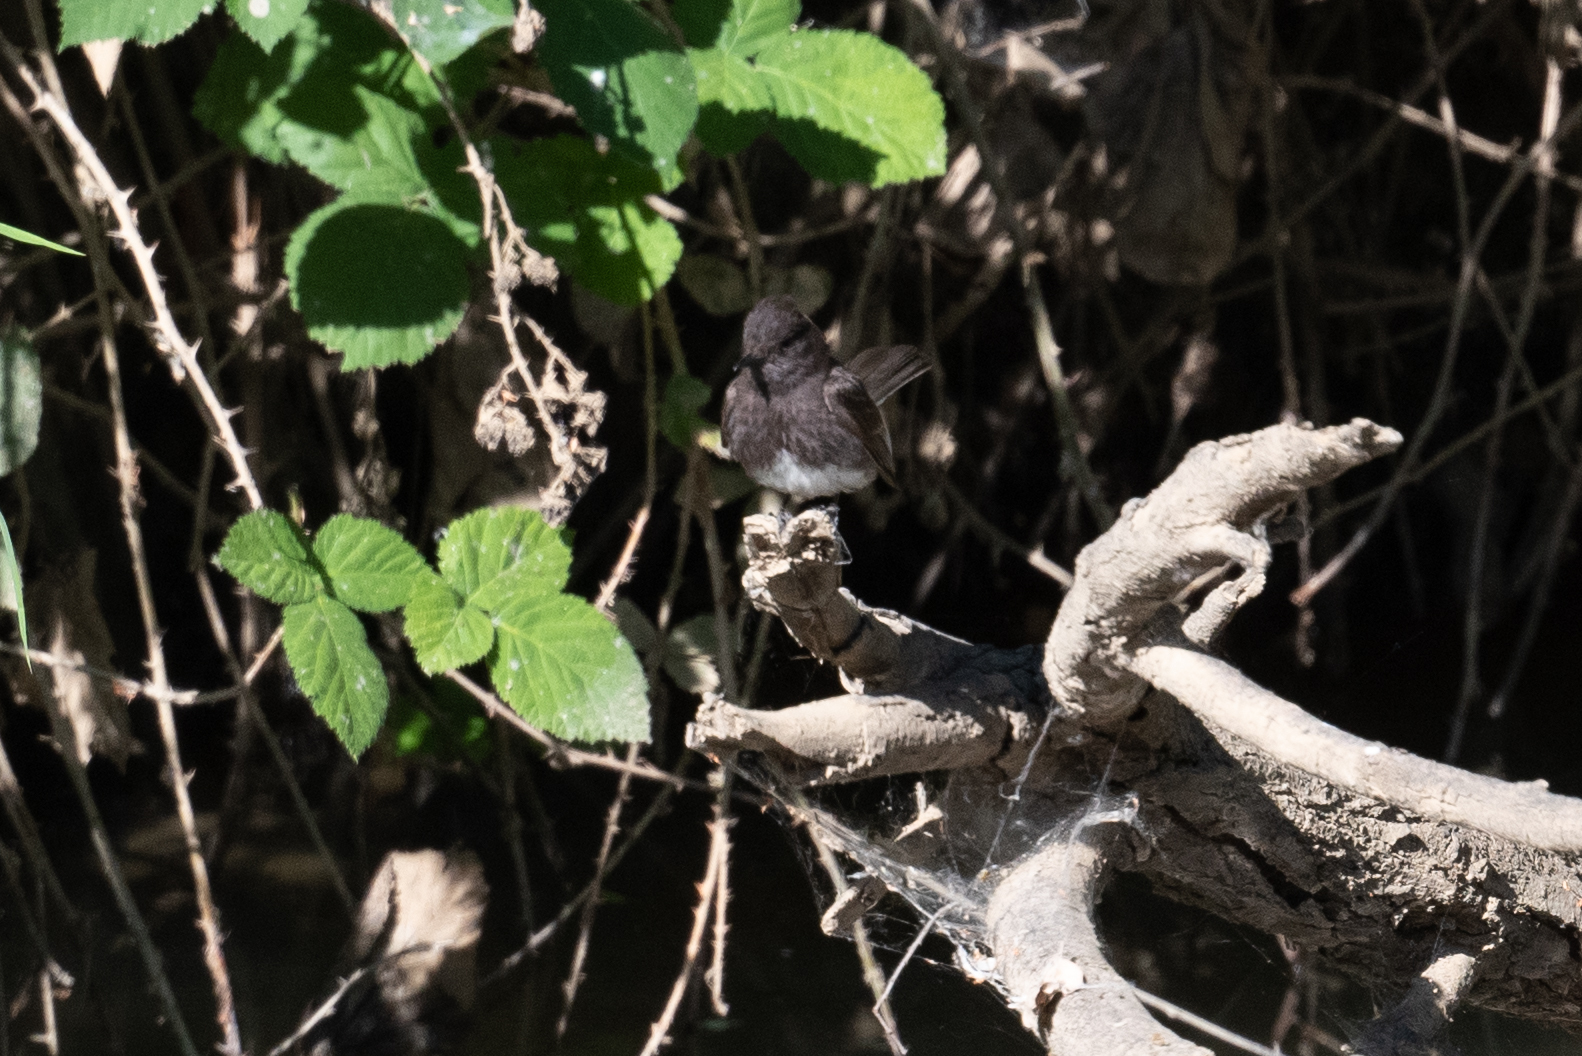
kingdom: Animalia
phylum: Chordata
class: Aves
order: Passeriformes
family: Tyrannidae
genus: Sayornis
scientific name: Sayornis nigricans
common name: Black phoebe
